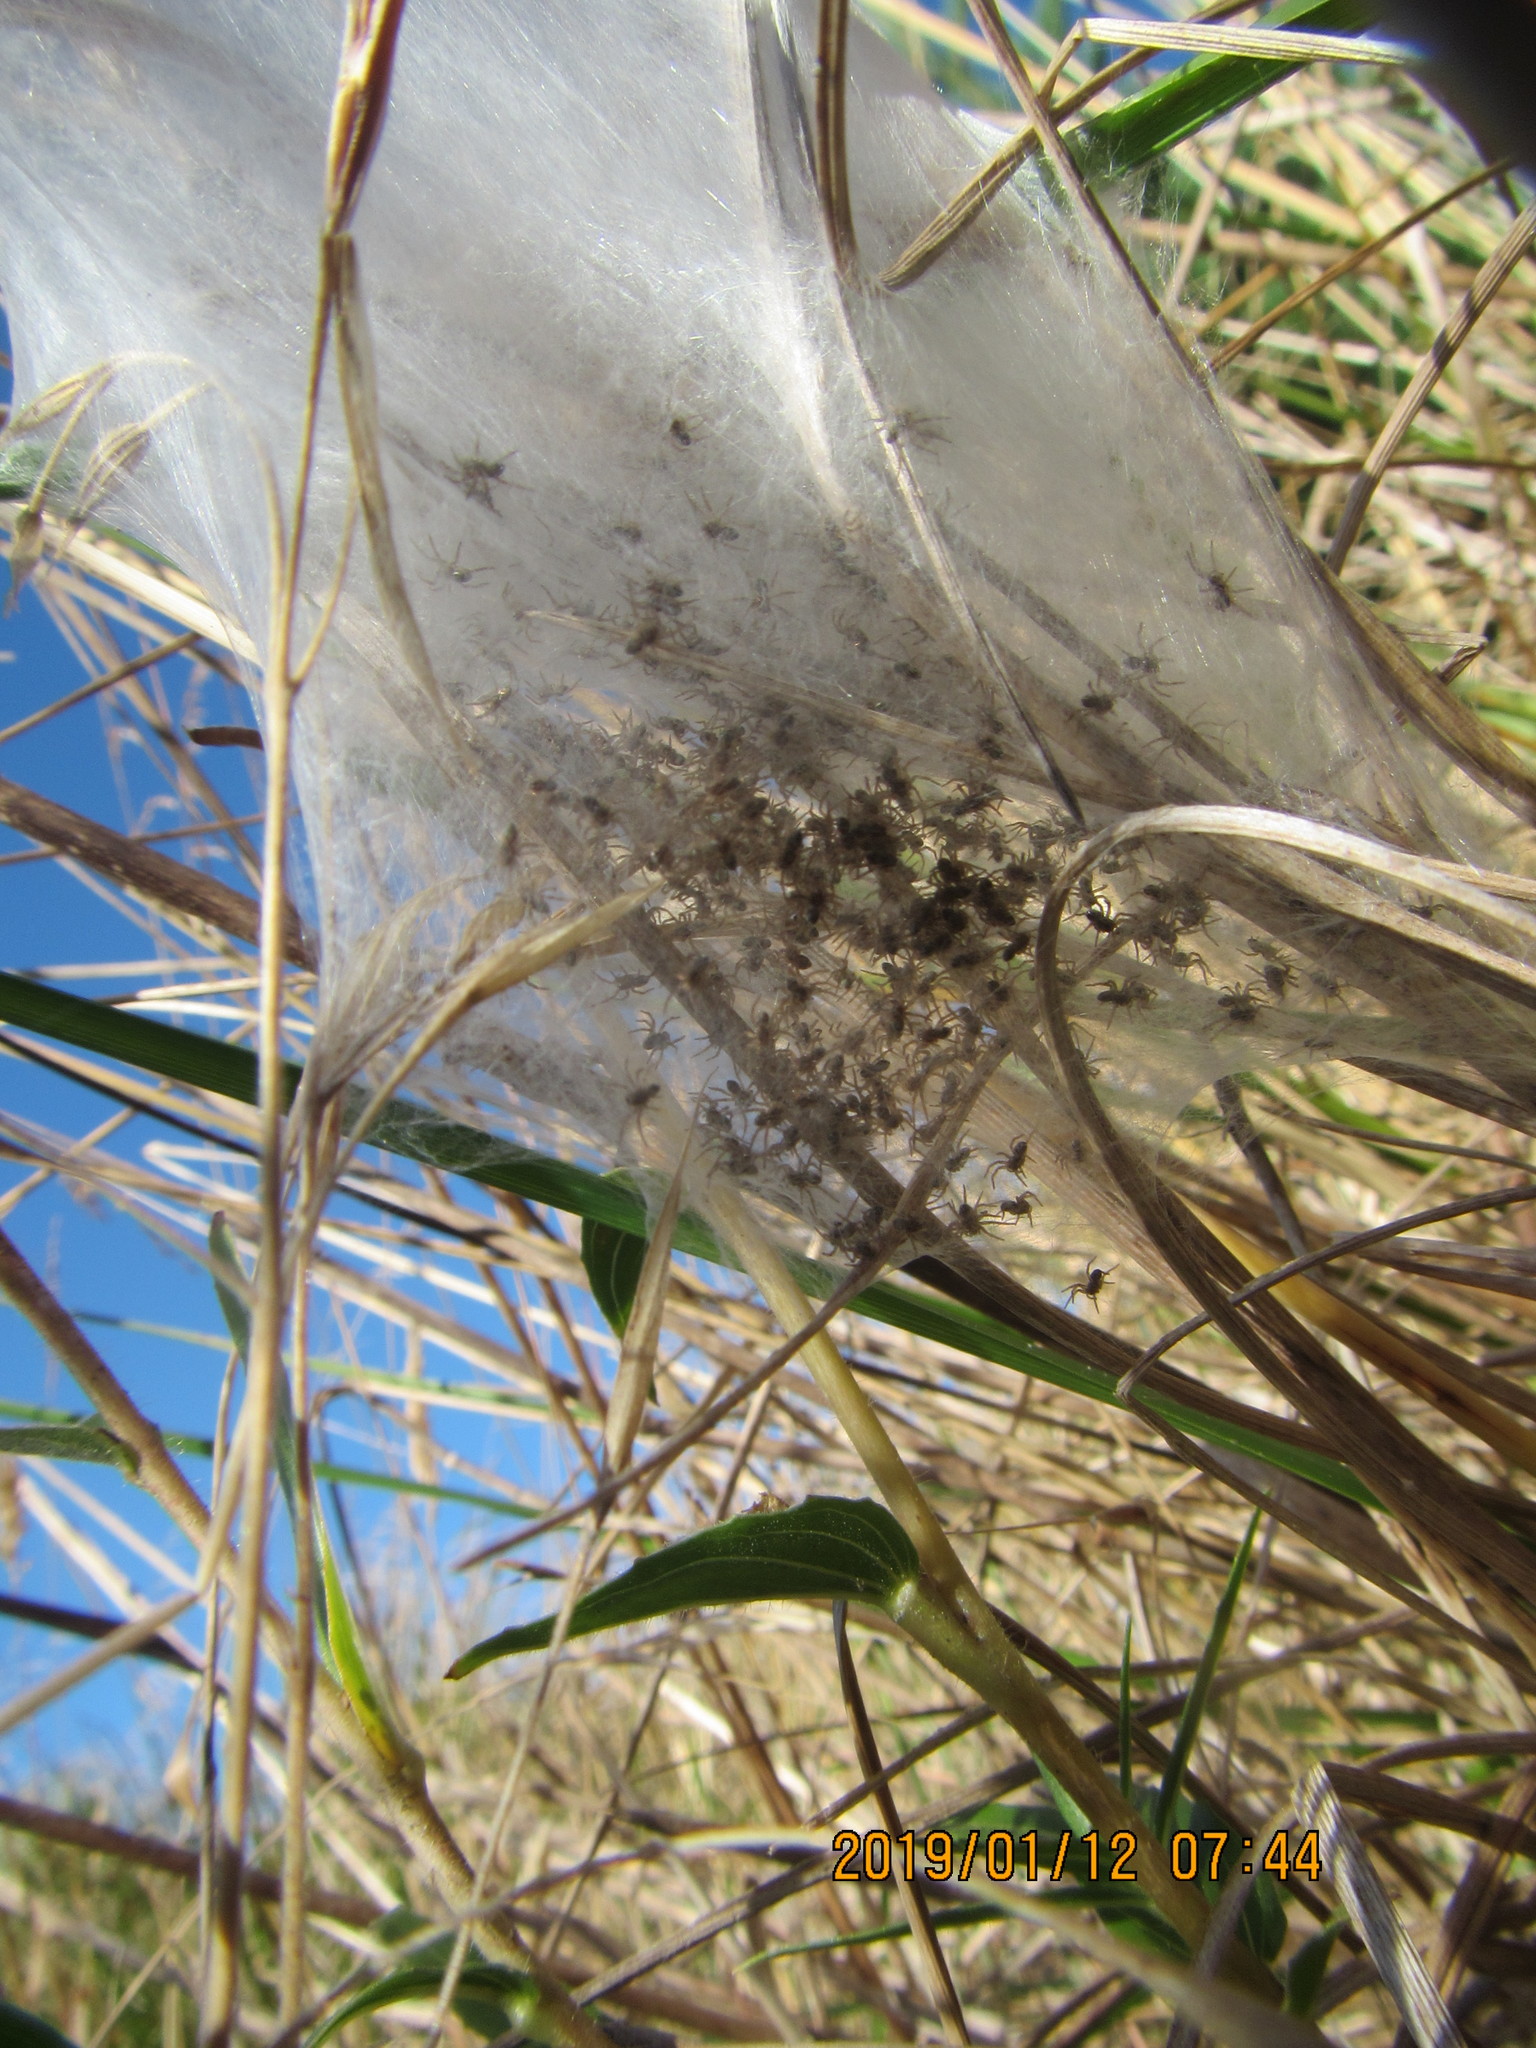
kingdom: Animalia
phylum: Arthropoda
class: Arachnida
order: Araneae
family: Pisauridae
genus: Dolomedes
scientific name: Dolomedes minor
